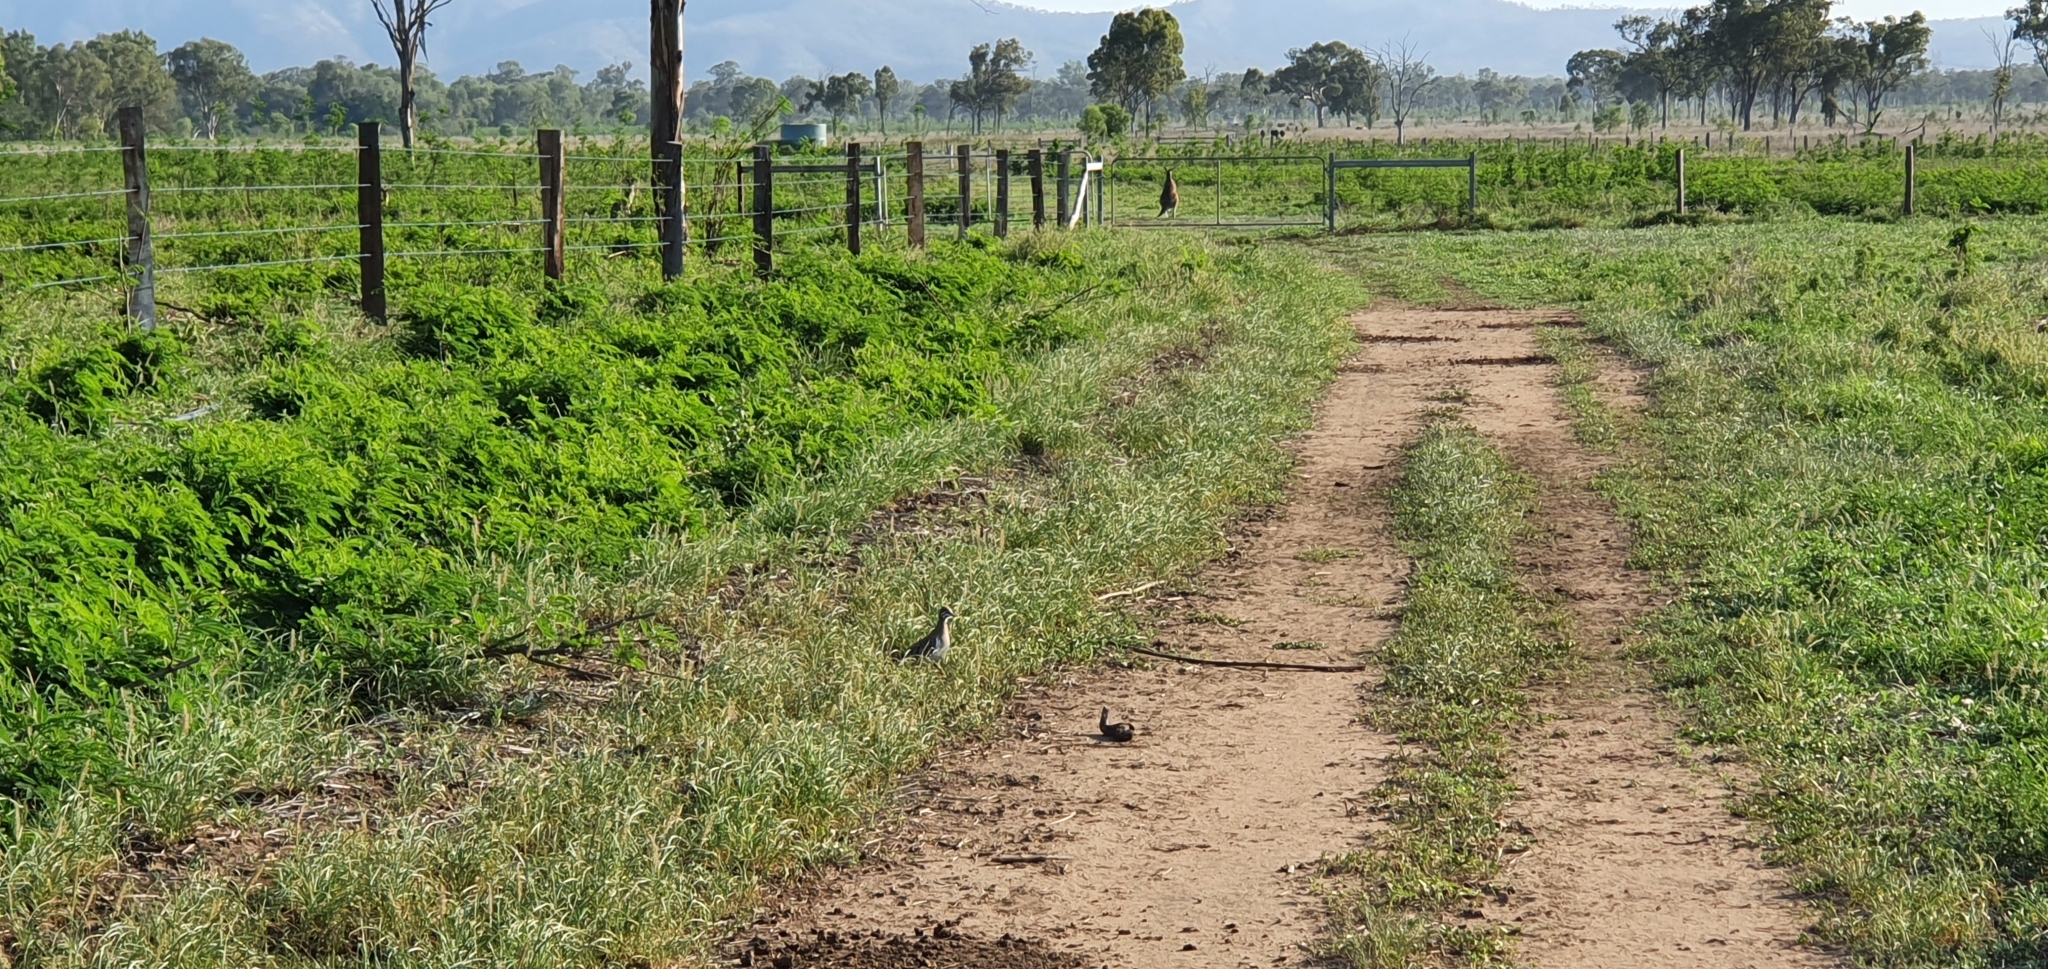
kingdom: Animalia
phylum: Chordata
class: Aves
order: Columbiformes
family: Columbidae
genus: Geophaps
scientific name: Geophaps scripta
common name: Squatter pigeon
